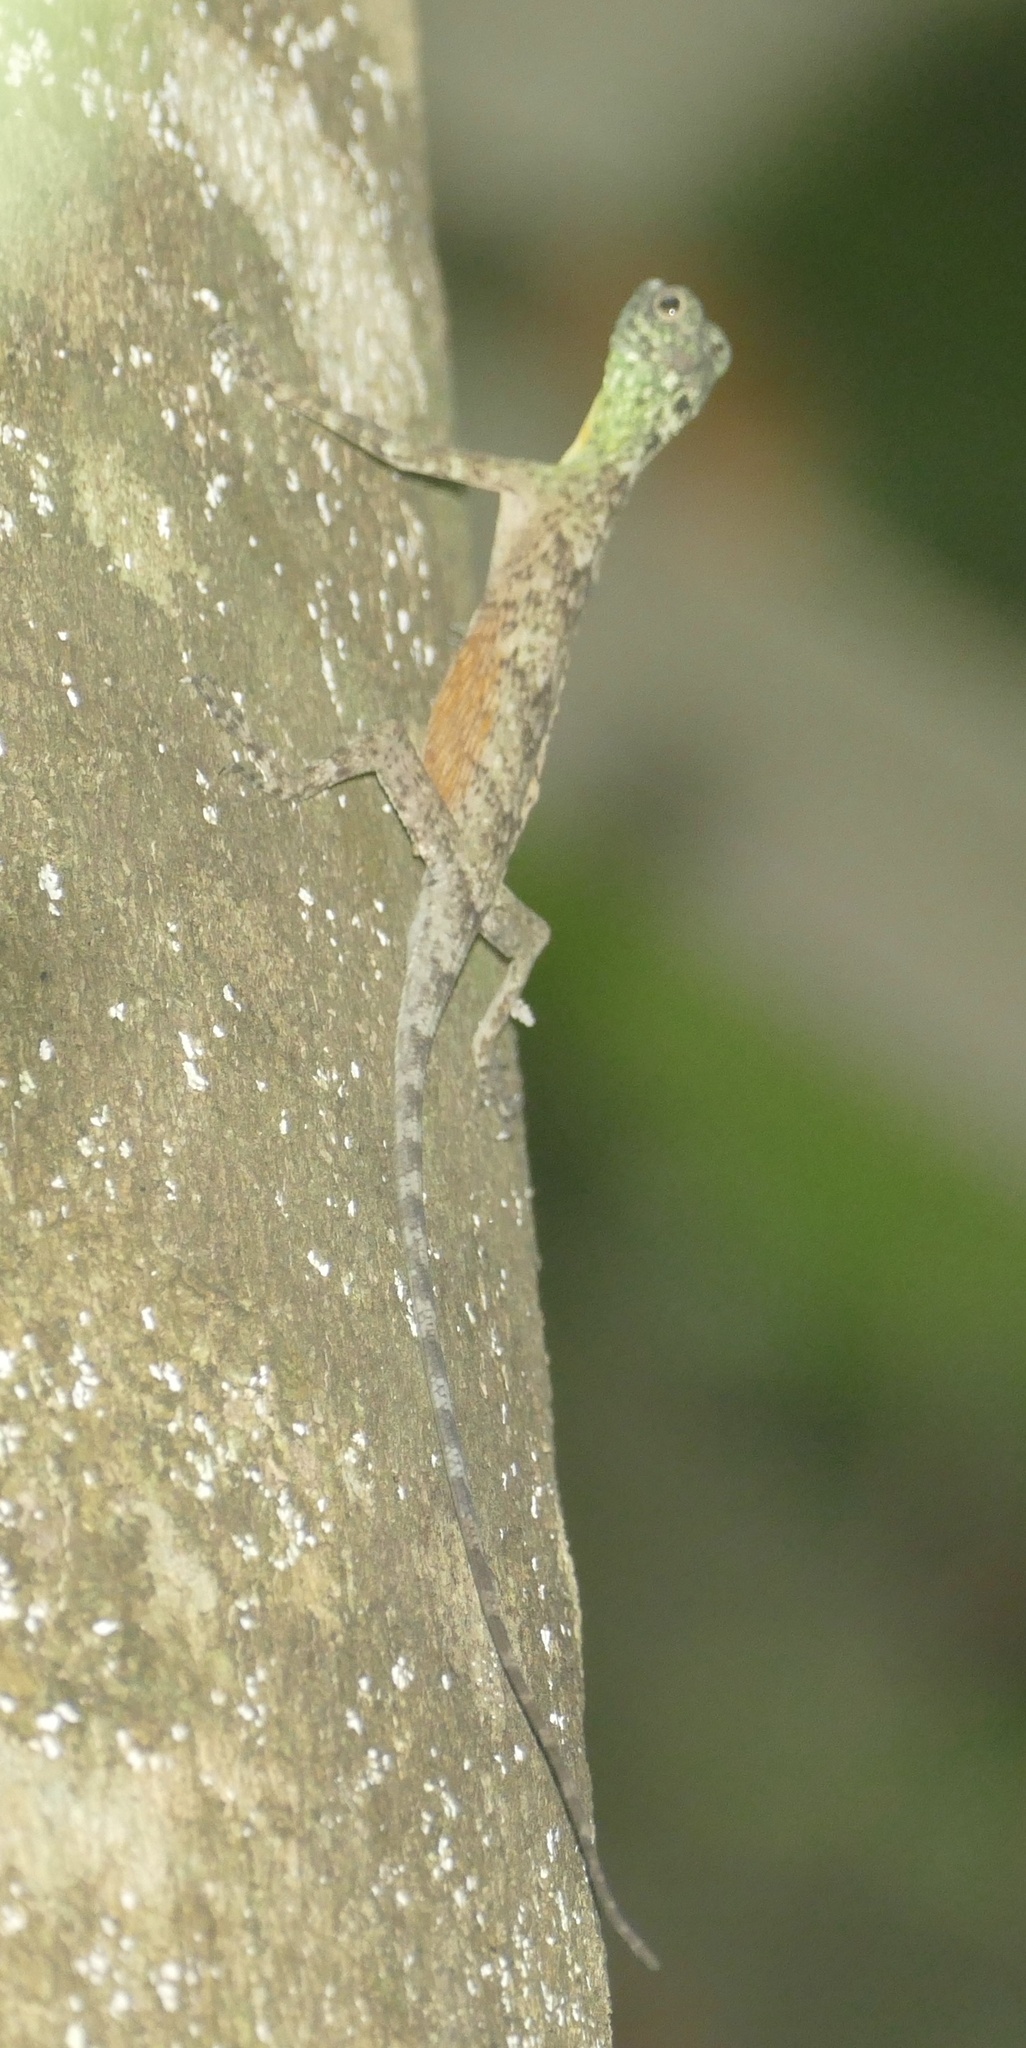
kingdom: Animalia
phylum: Chordata
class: Squamata
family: Agamidae
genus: Draco
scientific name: Draco spilonotus
